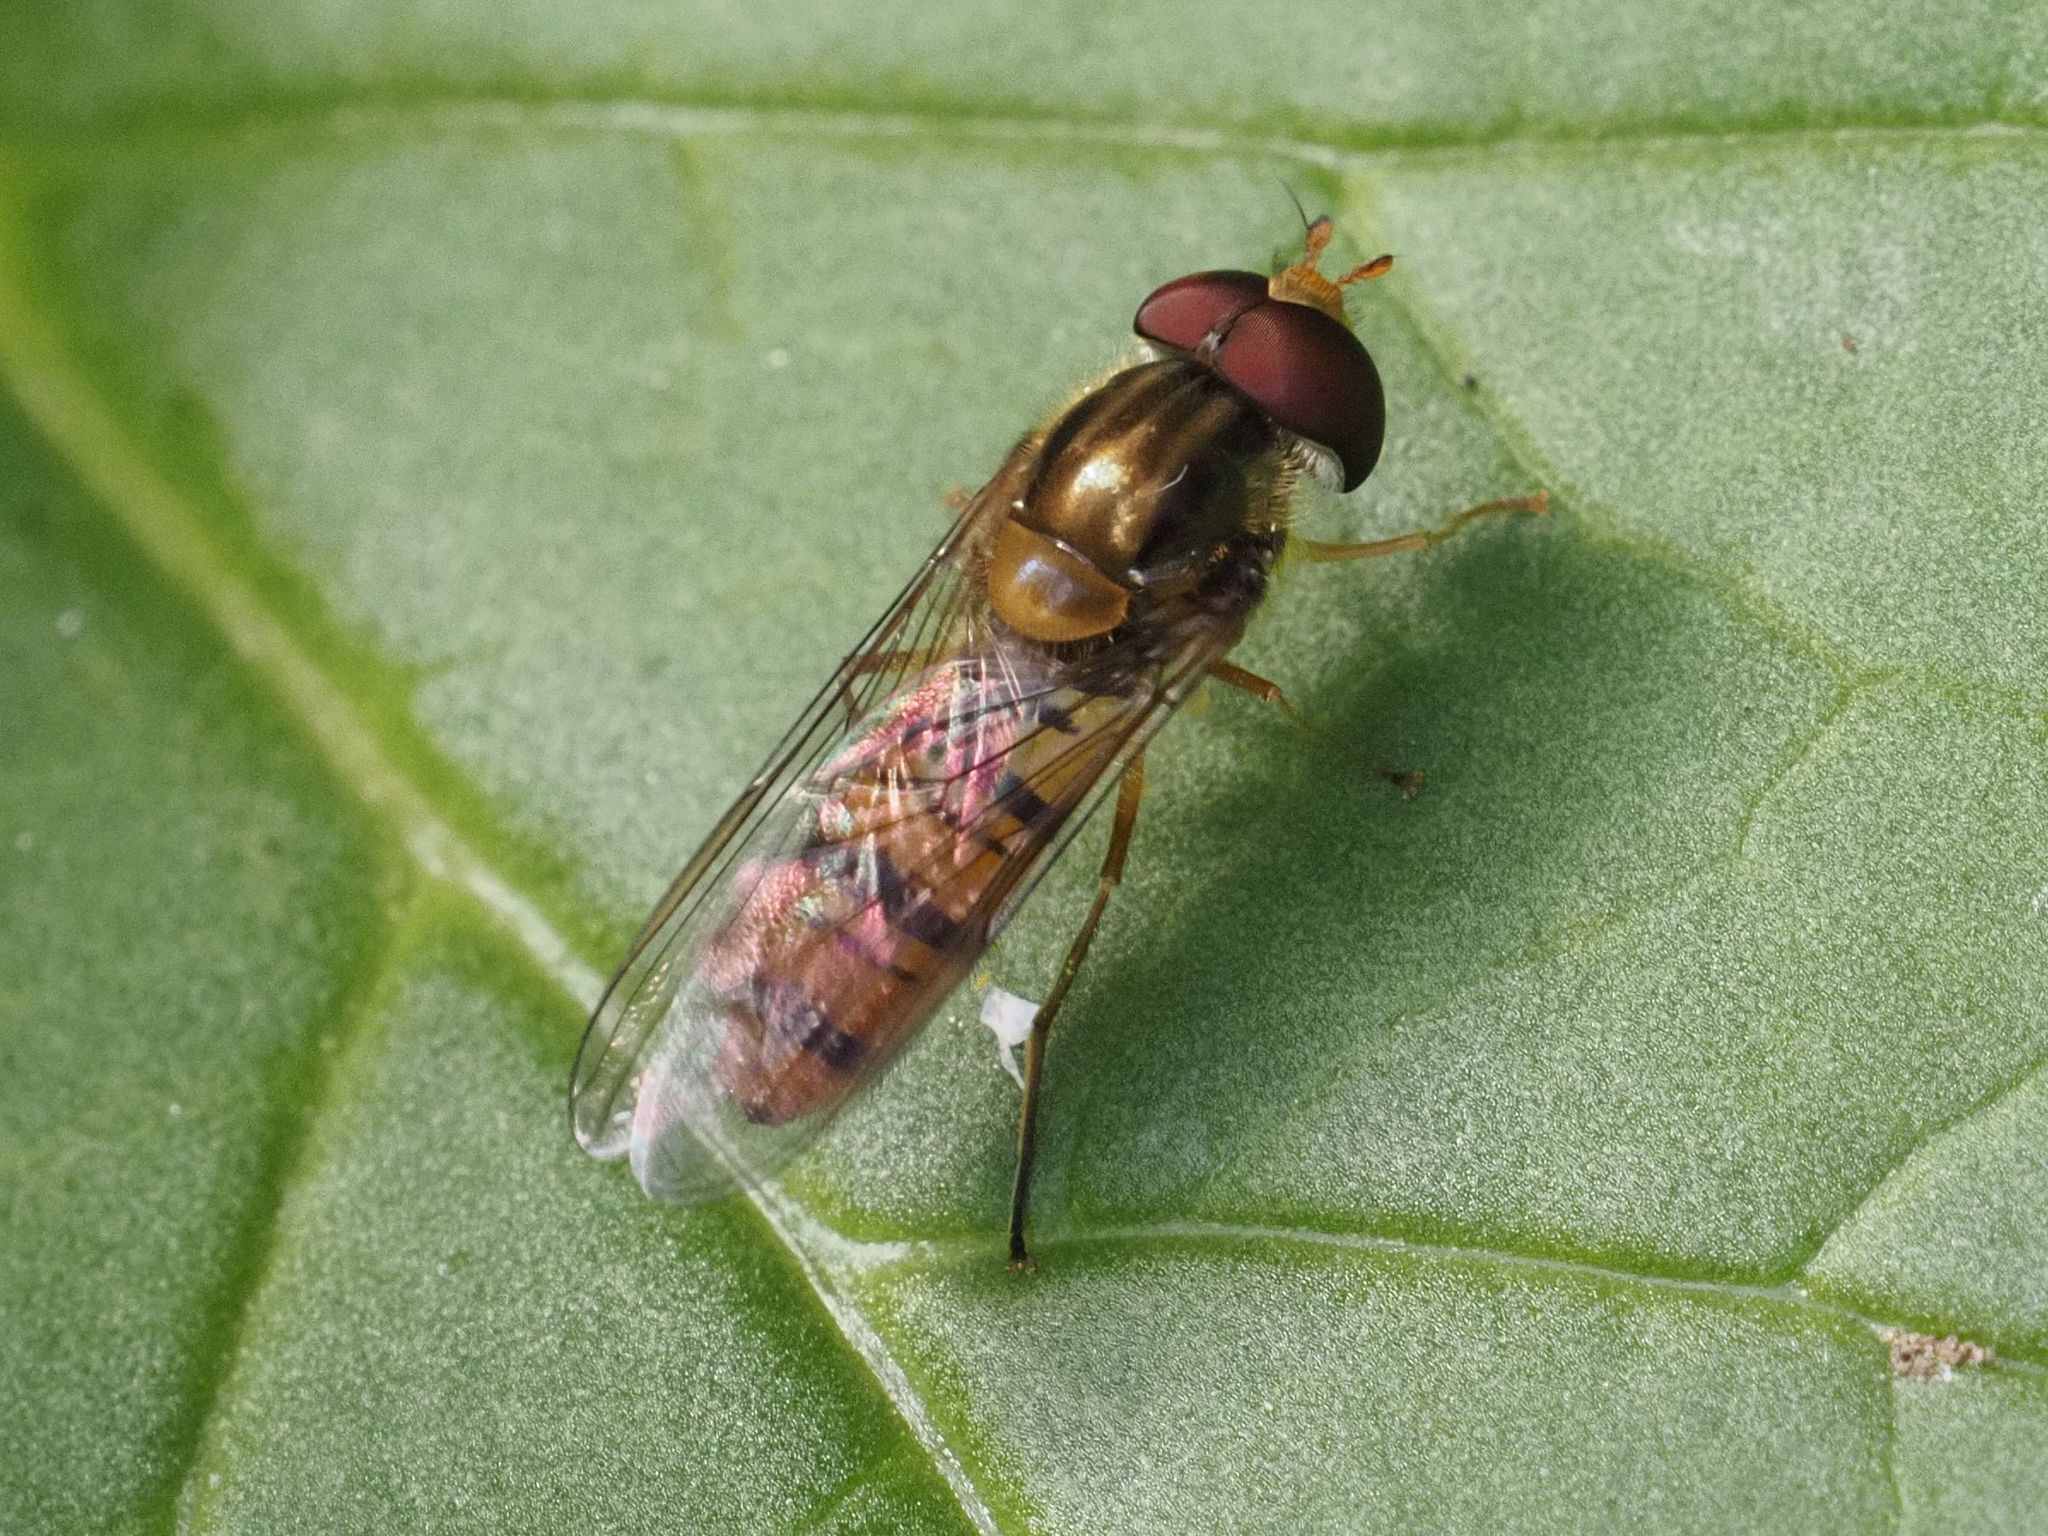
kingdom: Animalia
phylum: Arthropoda
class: Insecta
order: Diptera
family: Syrphidae
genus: Episyrphus
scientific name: Episyrphus balteatus
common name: Marmalade hoverfly
